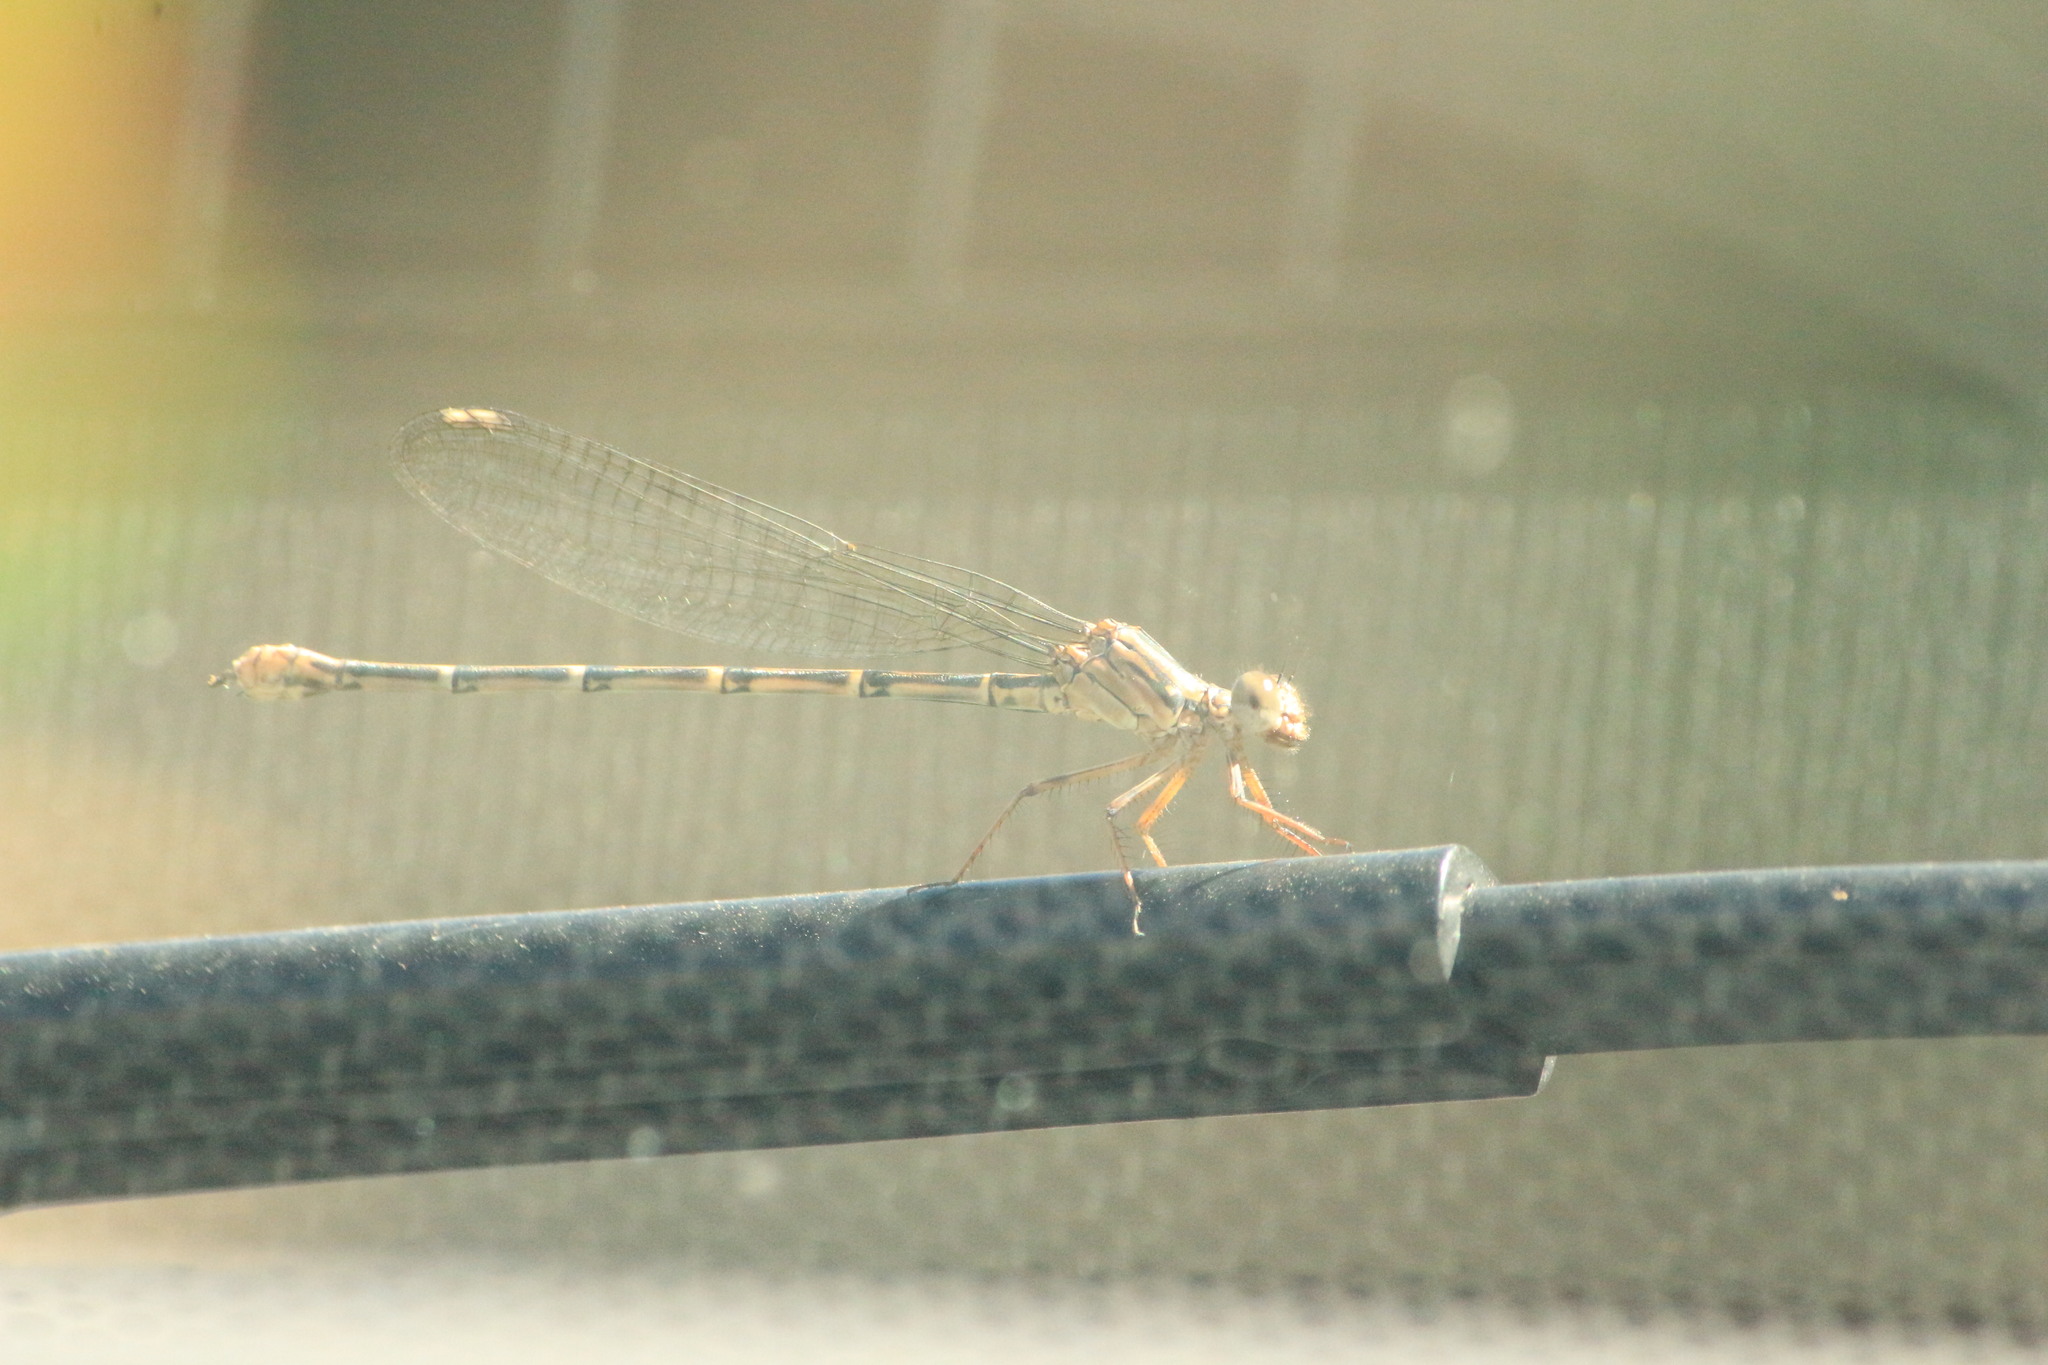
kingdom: Animalia
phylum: Arthropoda
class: Insecta
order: Odonata
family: Coenagrionidae
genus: Argia
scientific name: Argia lugens
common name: Sooty dancer
